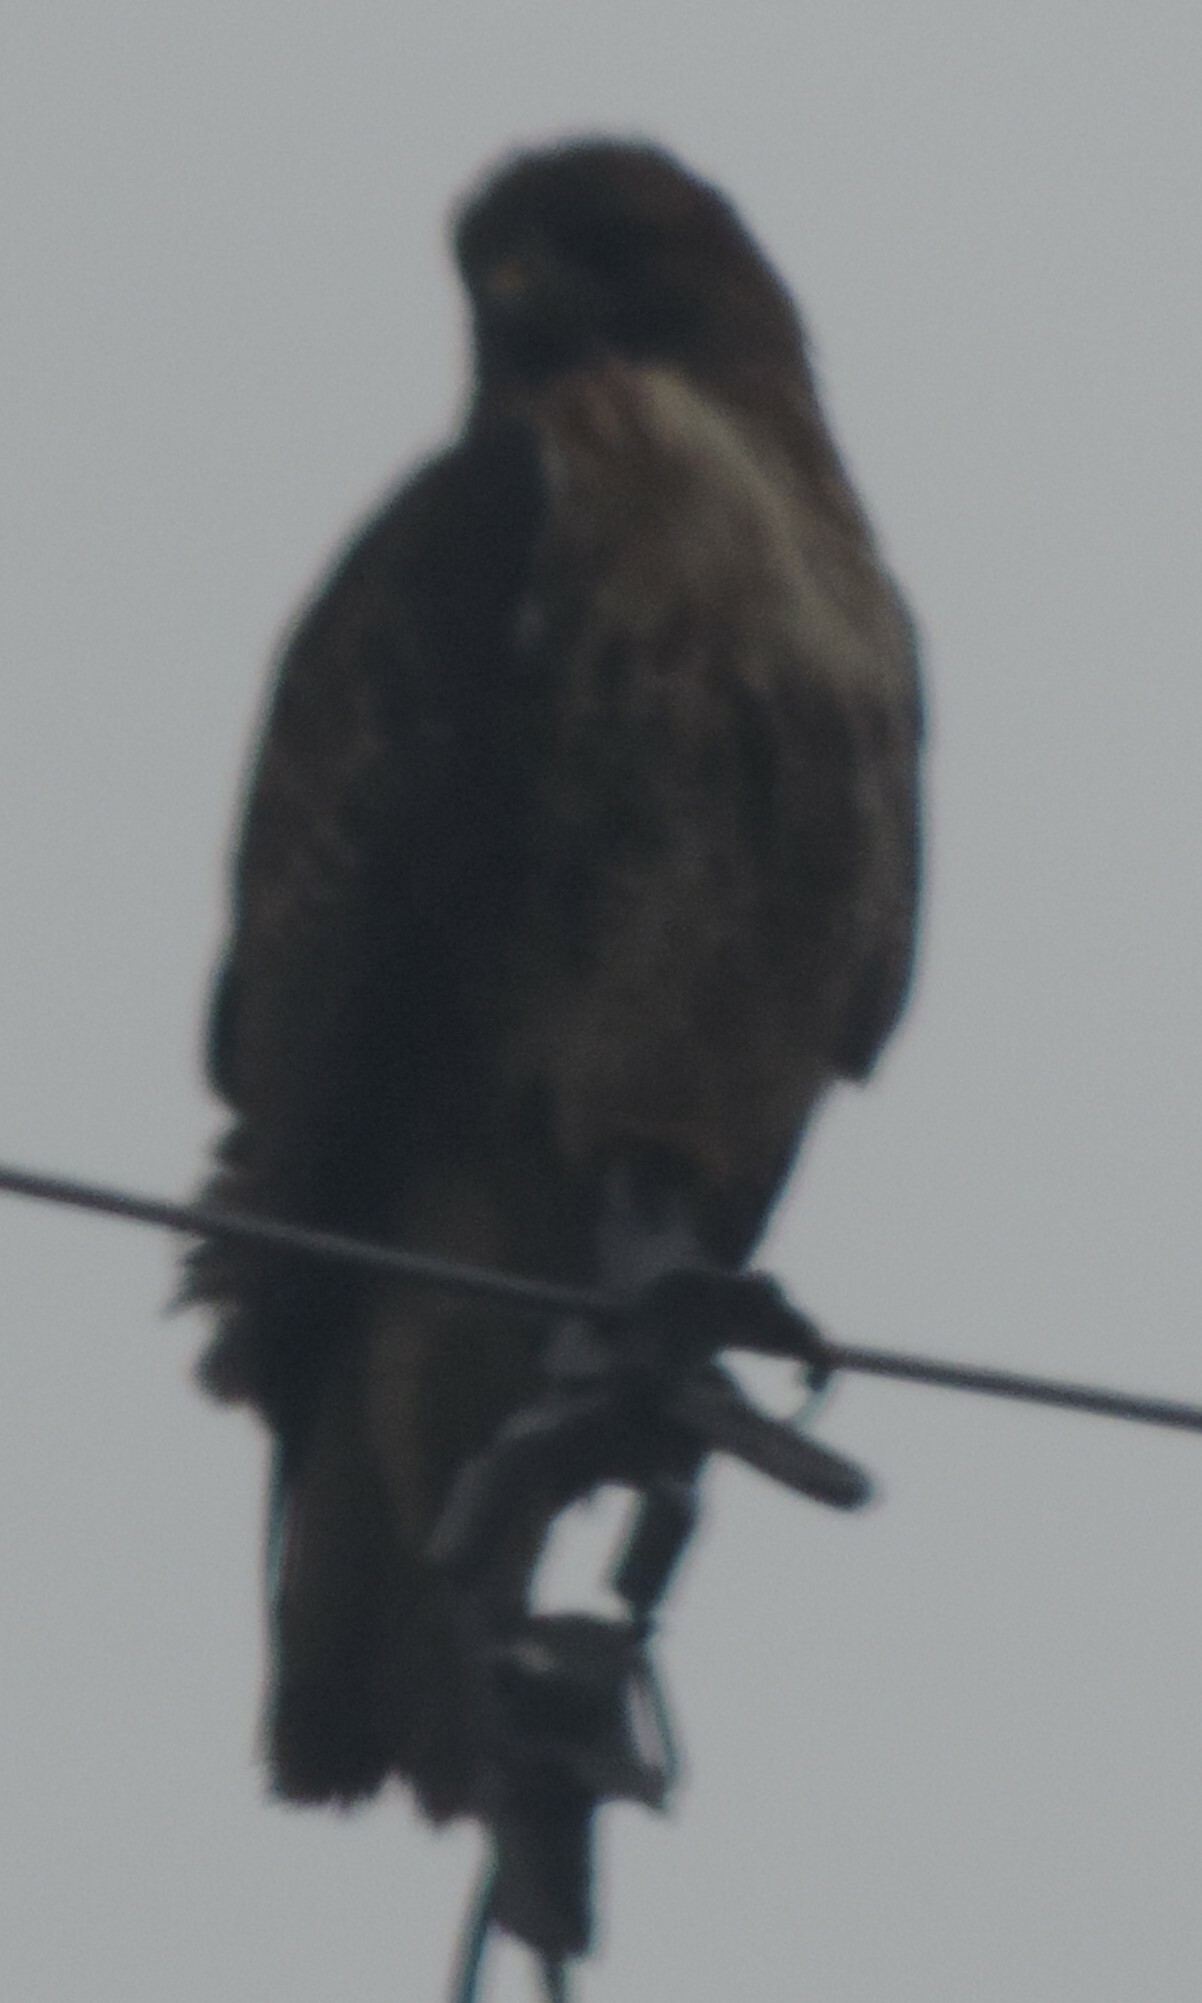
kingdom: Animalia
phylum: Chordata
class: Aves
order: Accipitriformes
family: Accipitridae
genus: Buteo
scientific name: Buteo jamaicensis
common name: Red-tailed hawk
